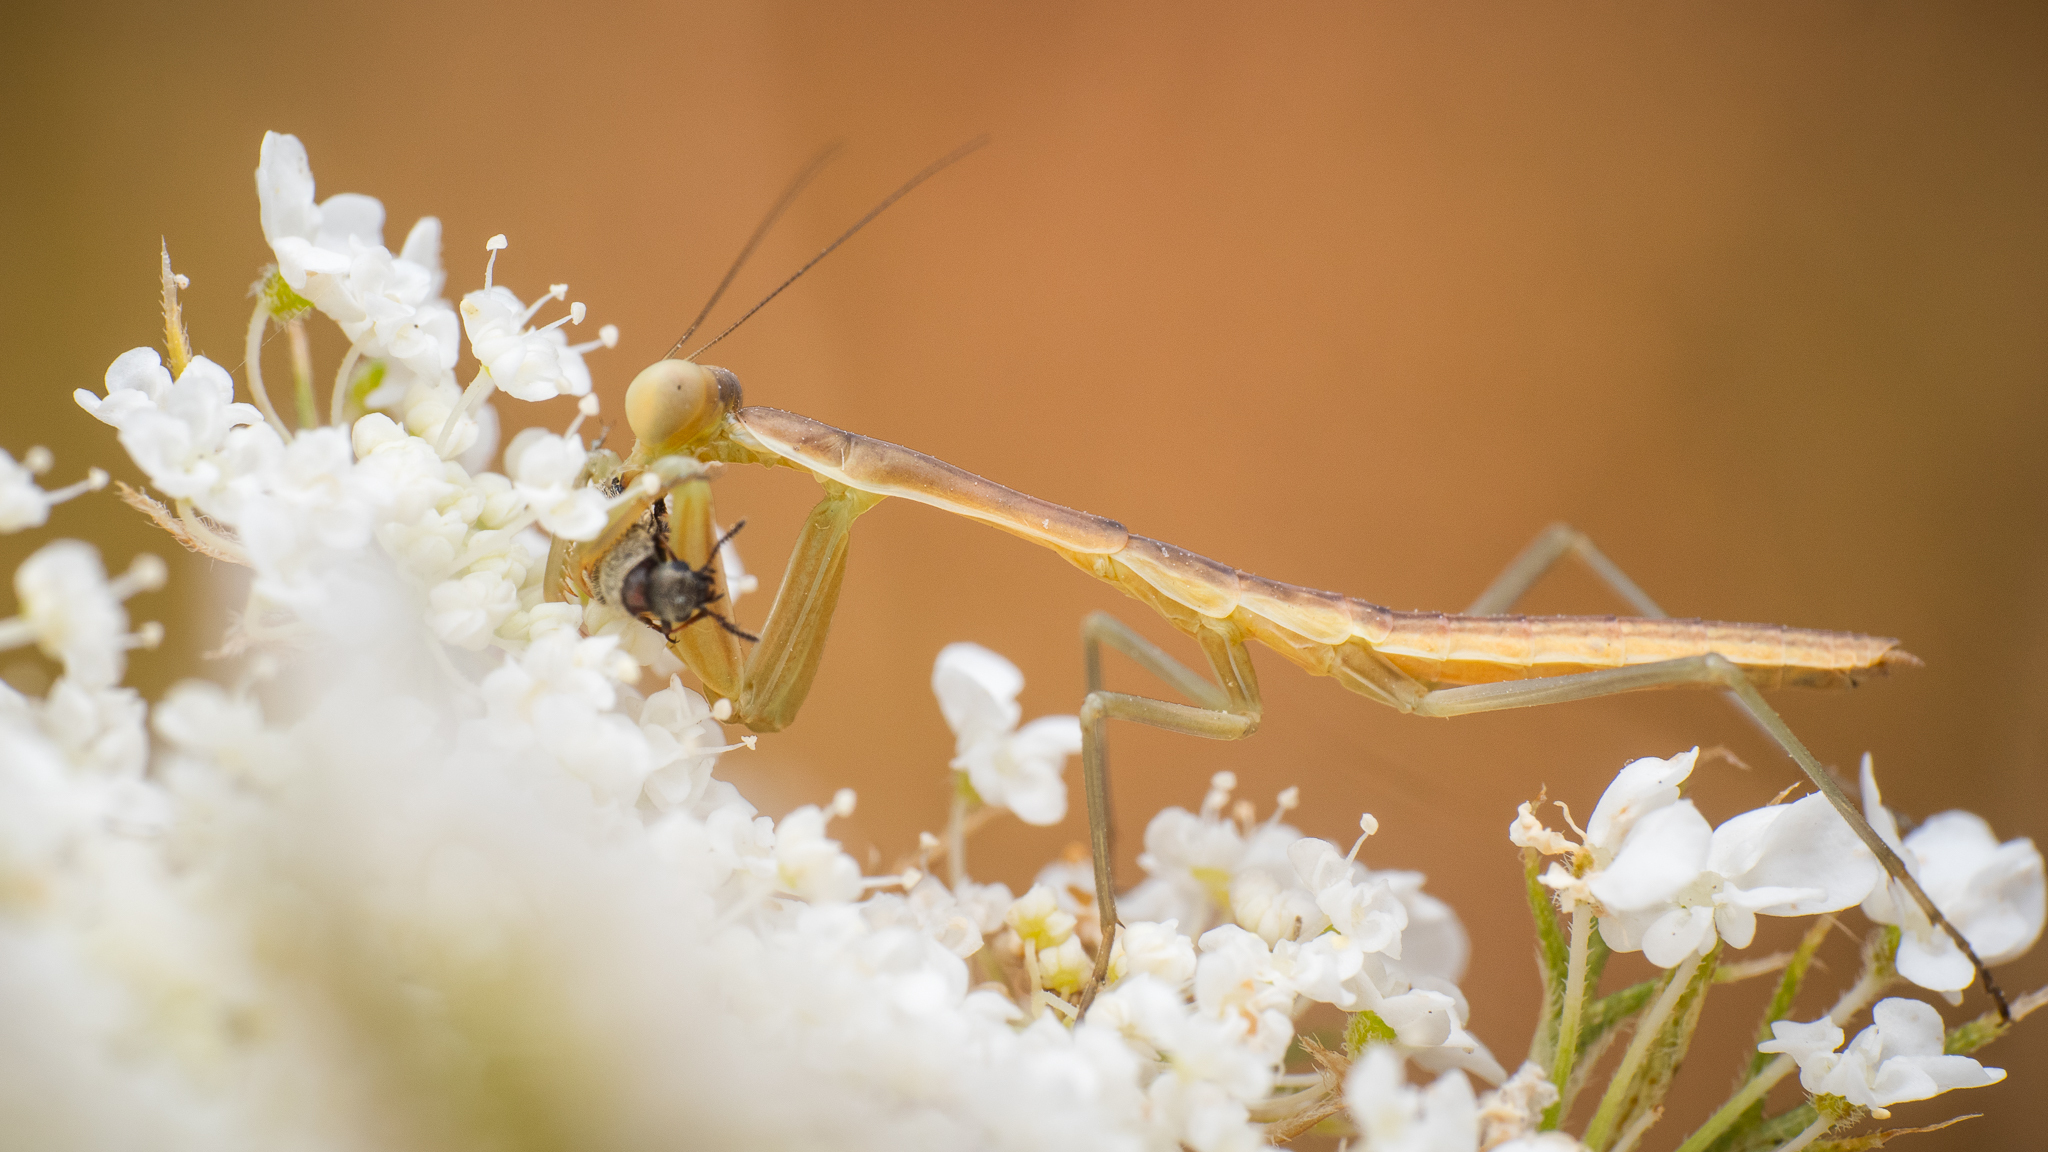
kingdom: Animalia
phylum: Arthropoda
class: Insecta
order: Mantodea
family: Eremiaphilidae
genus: Iris
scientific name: Iris oratoria
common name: Mediterranean mantis
